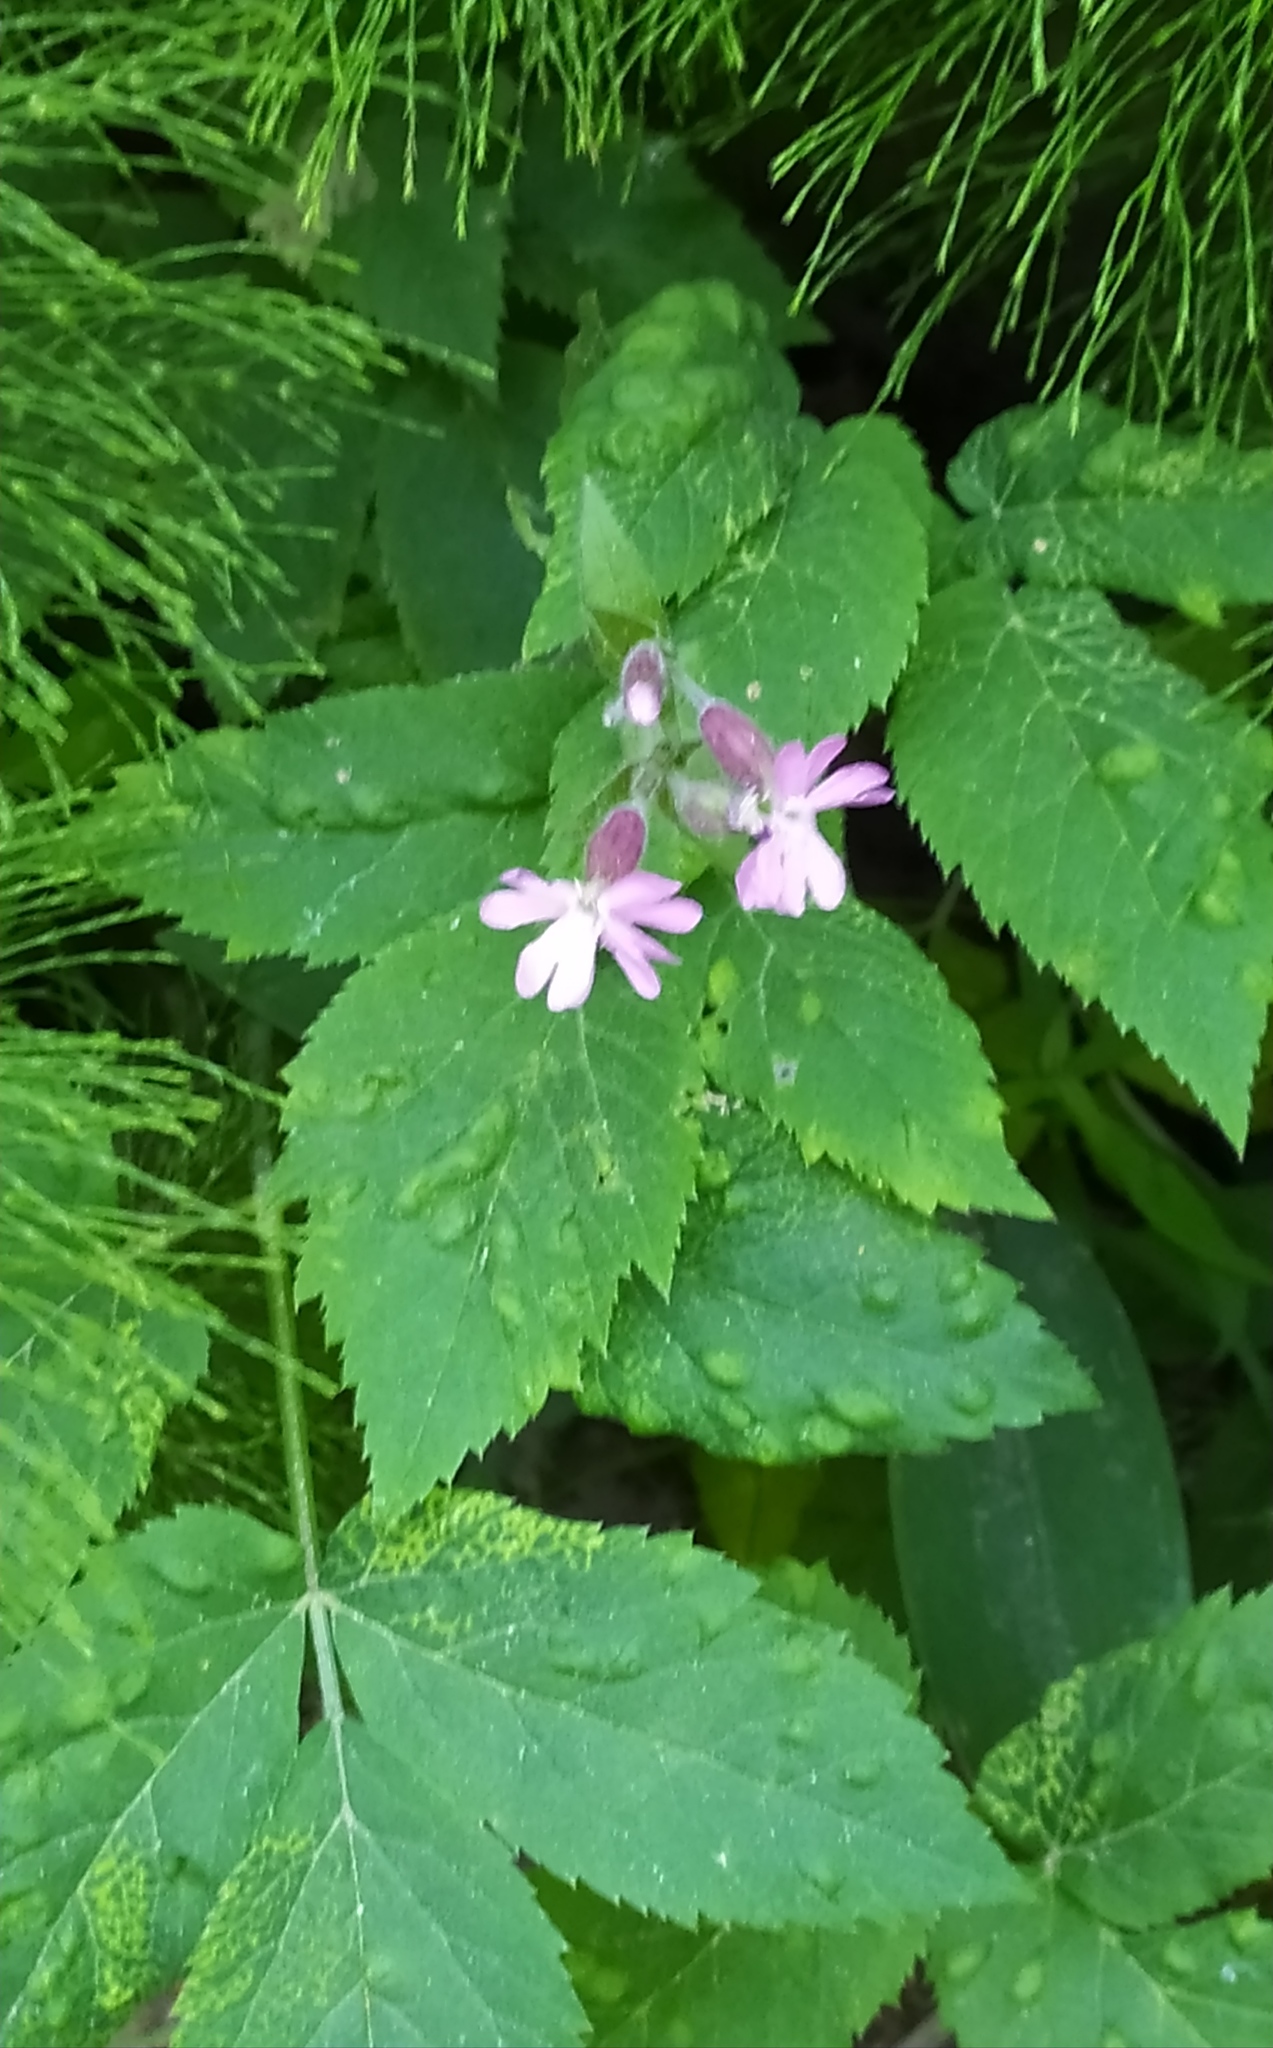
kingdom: Plantae
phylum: Tracheophyta
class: Magnoliopsida
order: Caryophyllales
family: Caryophyllaceae
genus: Silene
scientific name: Silene dioica
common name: Red campion
